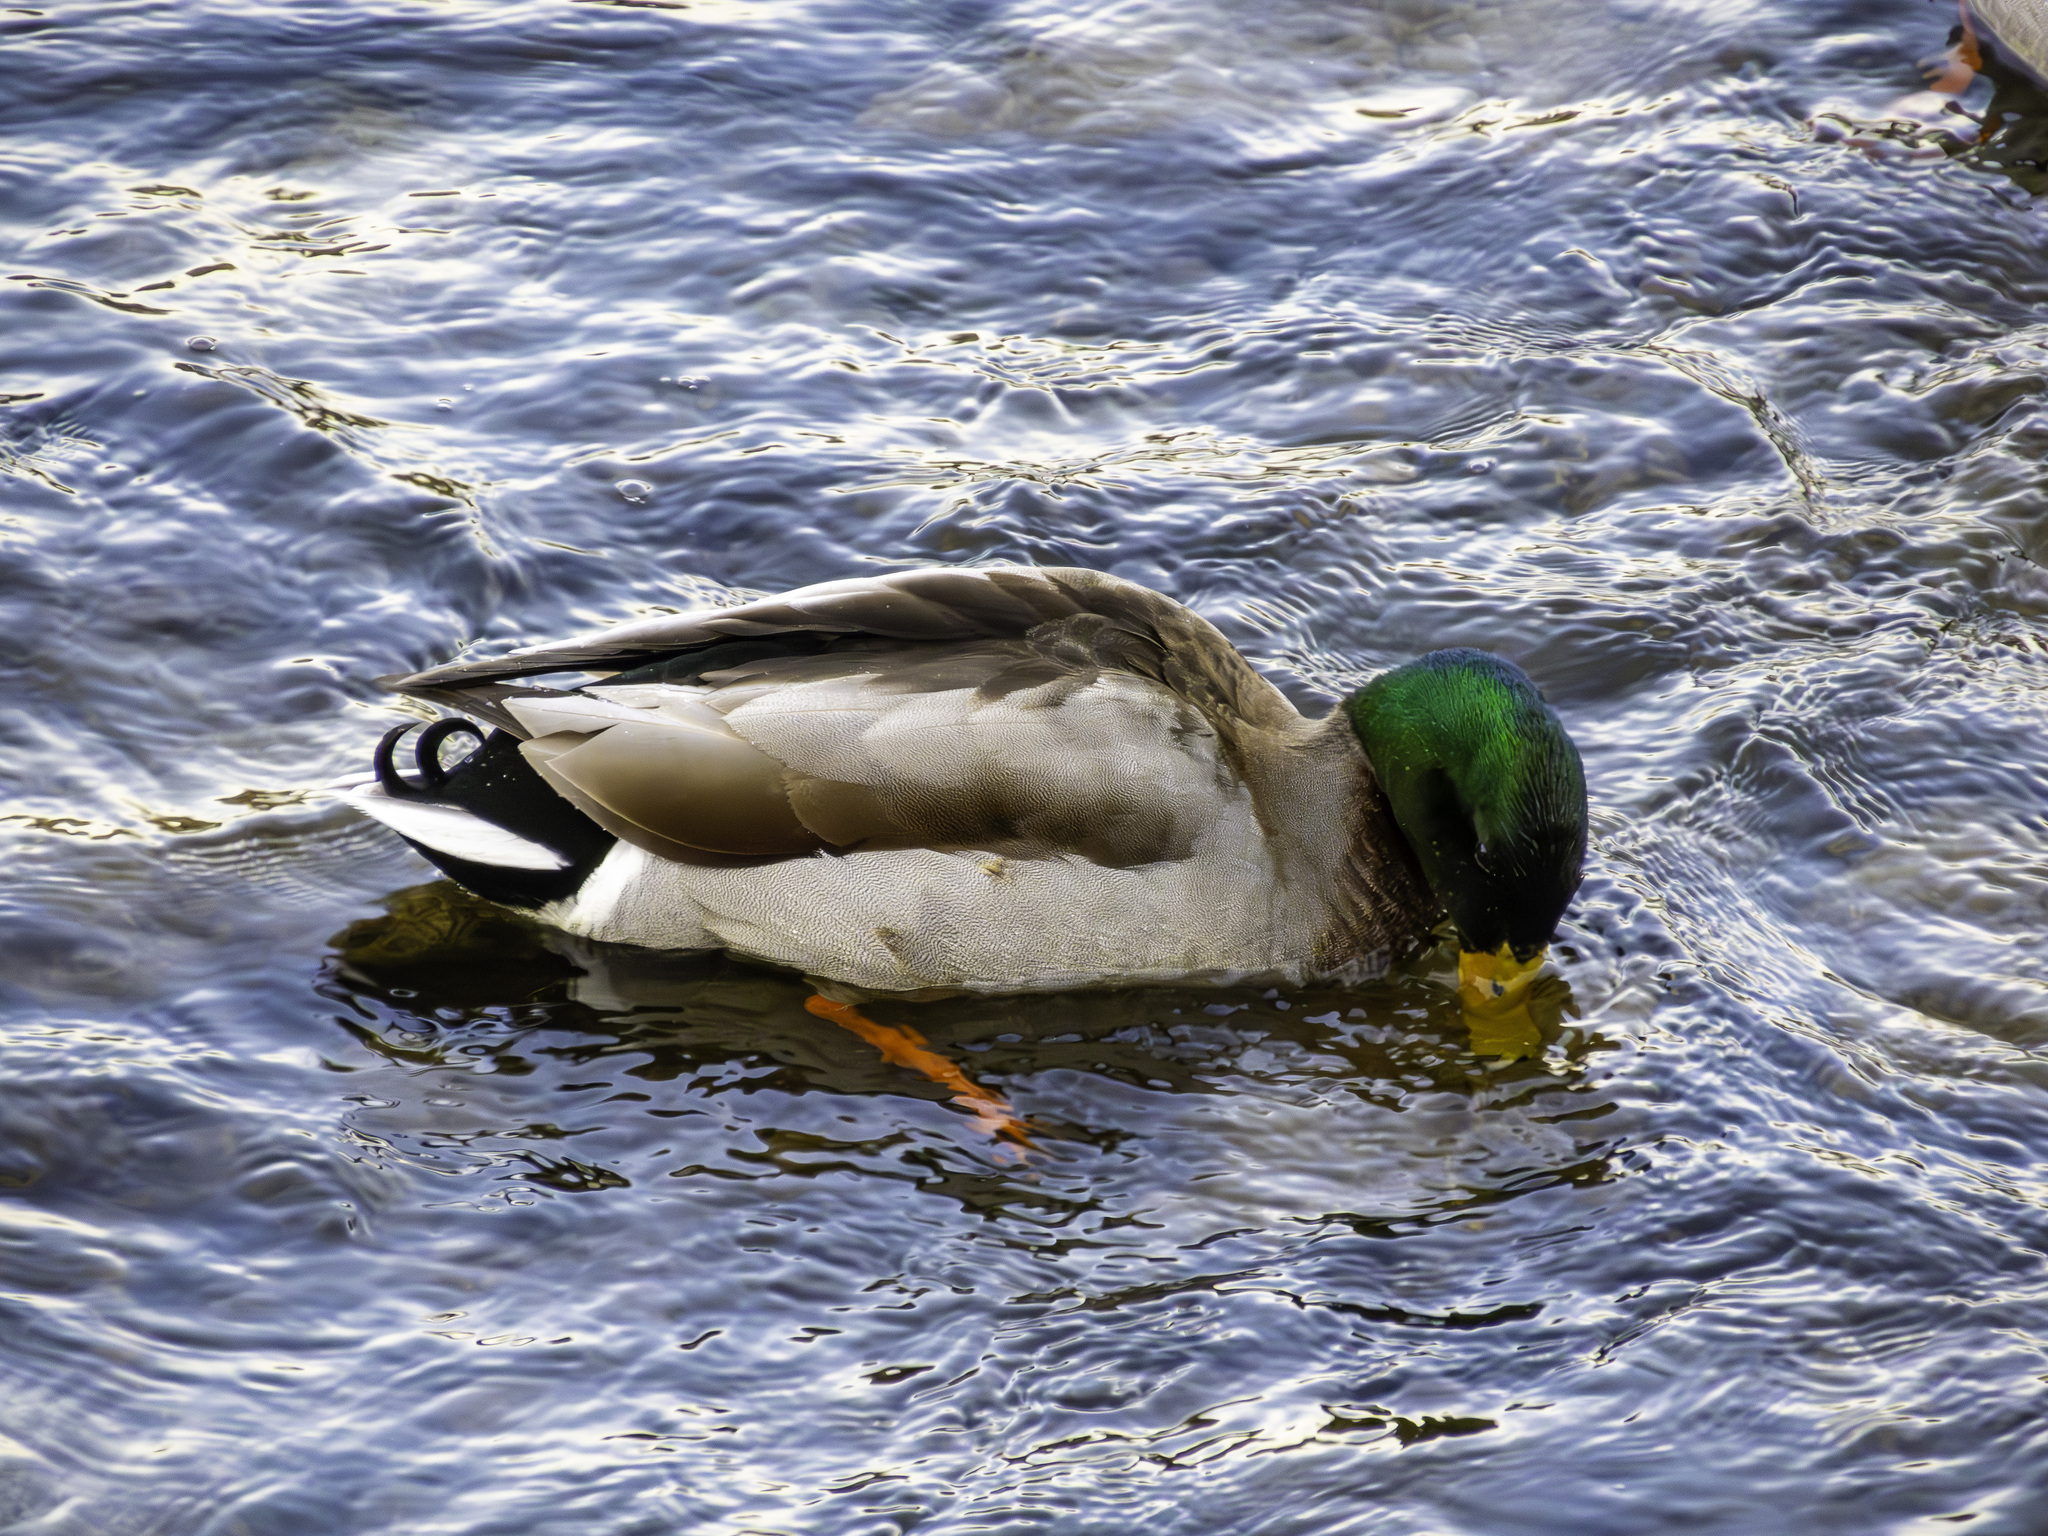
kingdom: Animalia
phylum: Chordata
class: Aves
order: Anseriformes
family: Anatidae
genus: Anas
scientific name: Anas platyrhynchos
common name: Mallard
